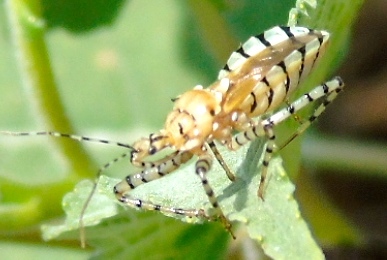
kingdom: Animalia
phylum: Arthropoda
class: Insecta
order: Hemiptera
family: Reduviidae
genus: Pselliopus
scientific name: Pselliopus
